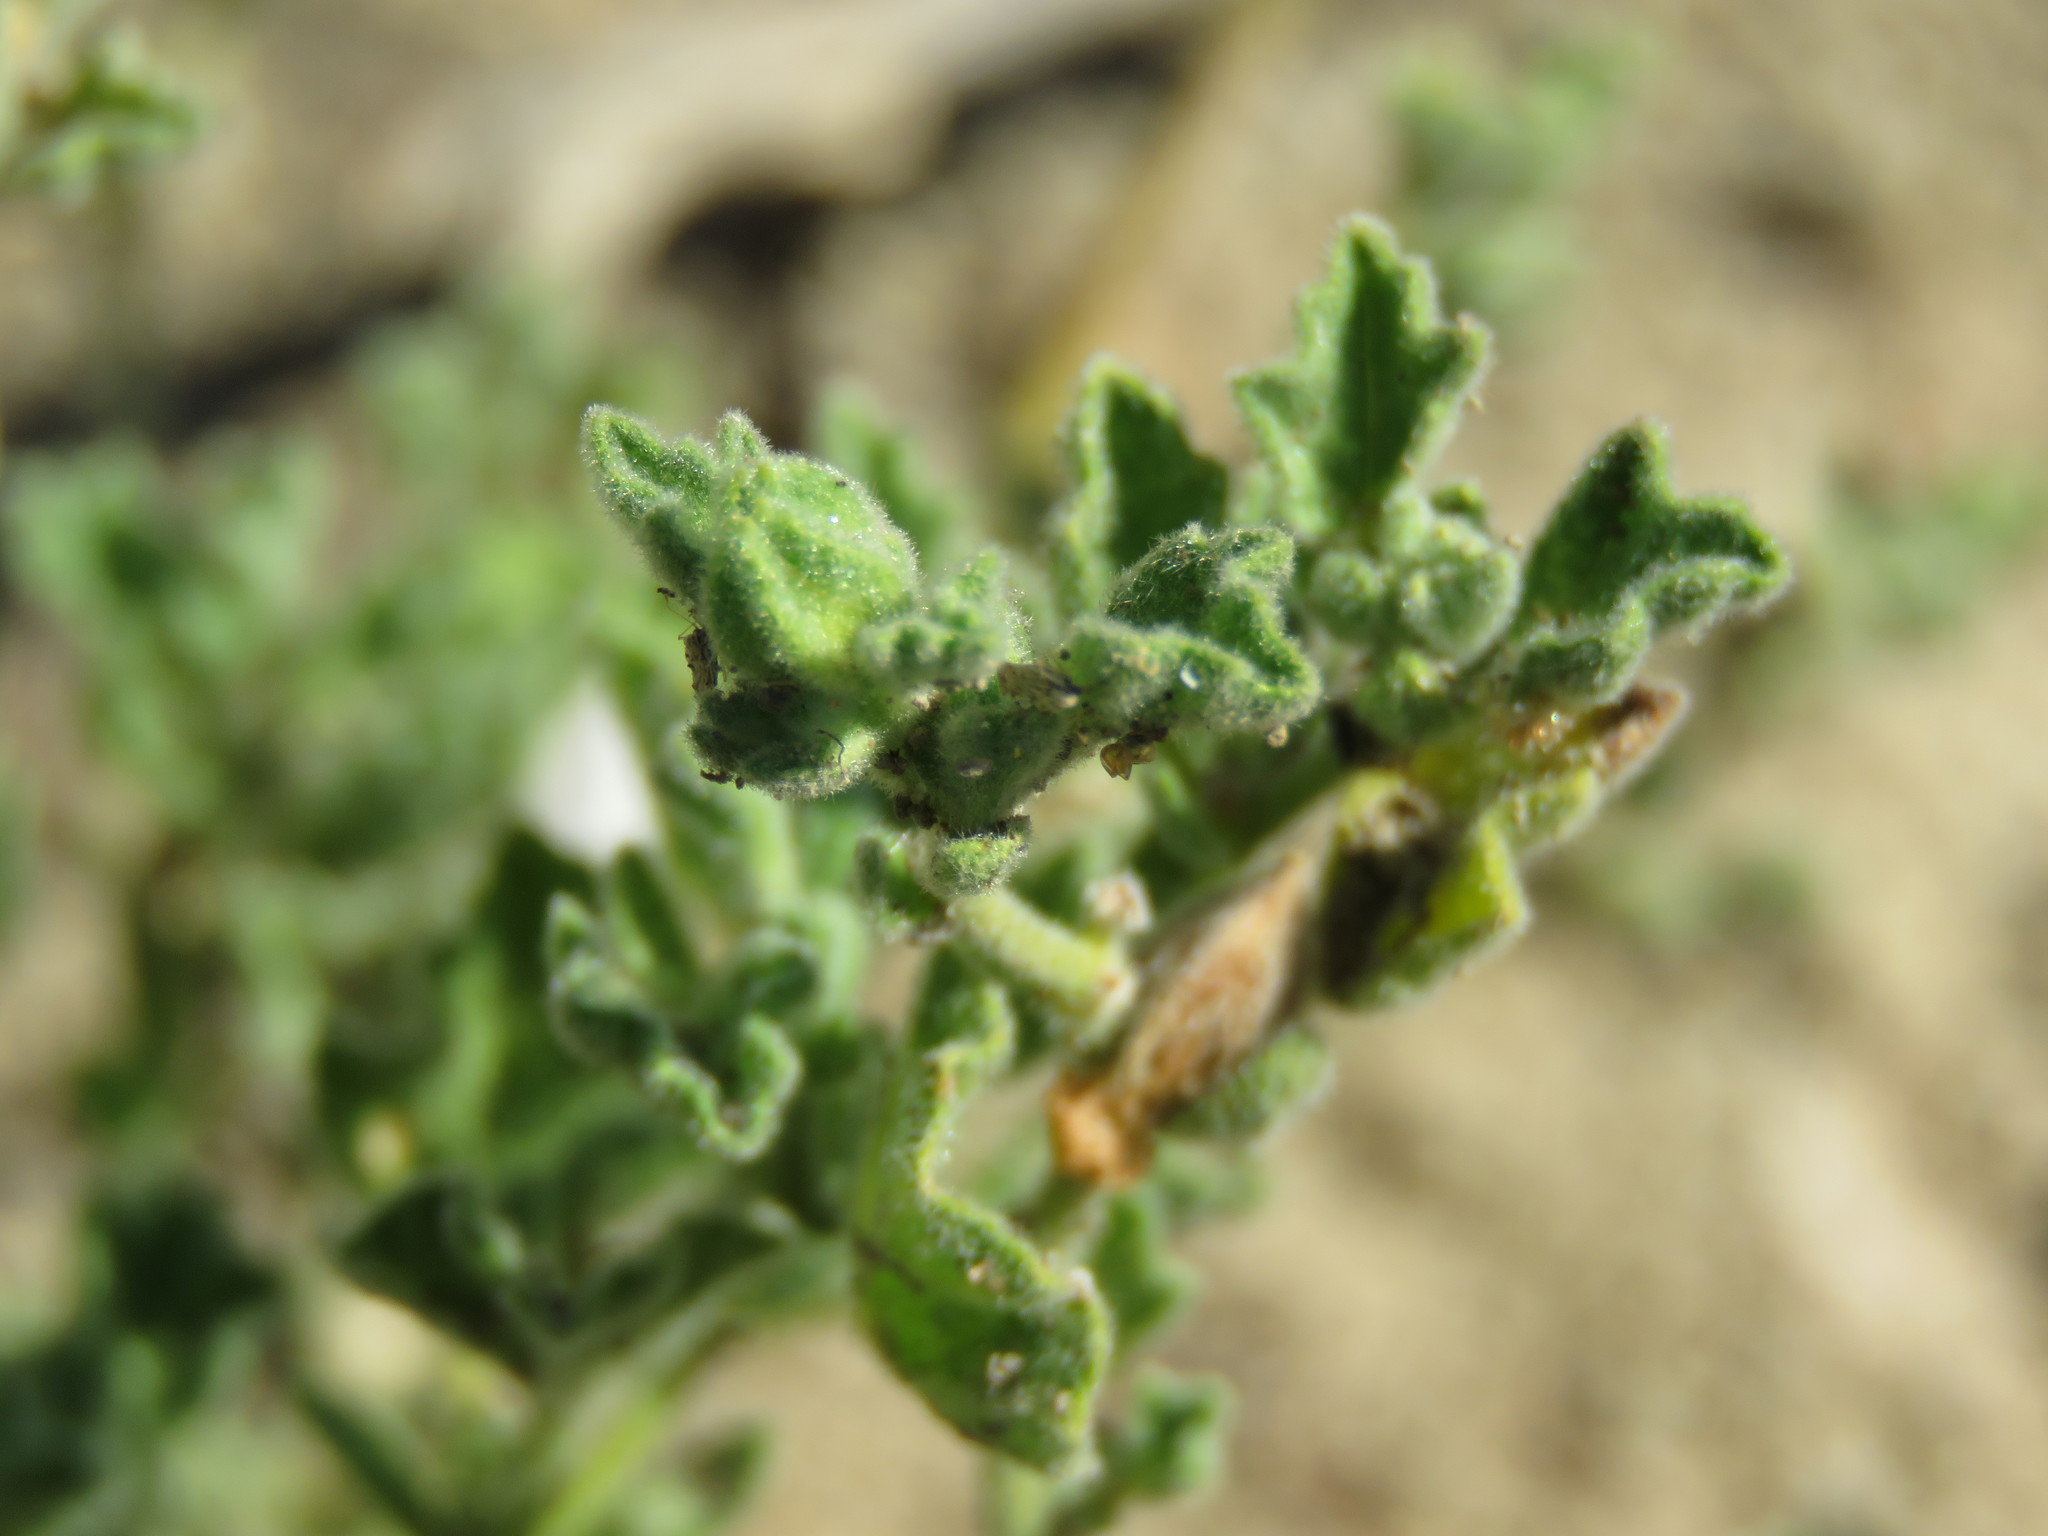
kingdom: Plantae
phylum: Tracheophyta
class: Magnoliopsida
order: Malvales
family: Malvaceae
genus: Billieturnera
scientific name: Billieturnera helleri
